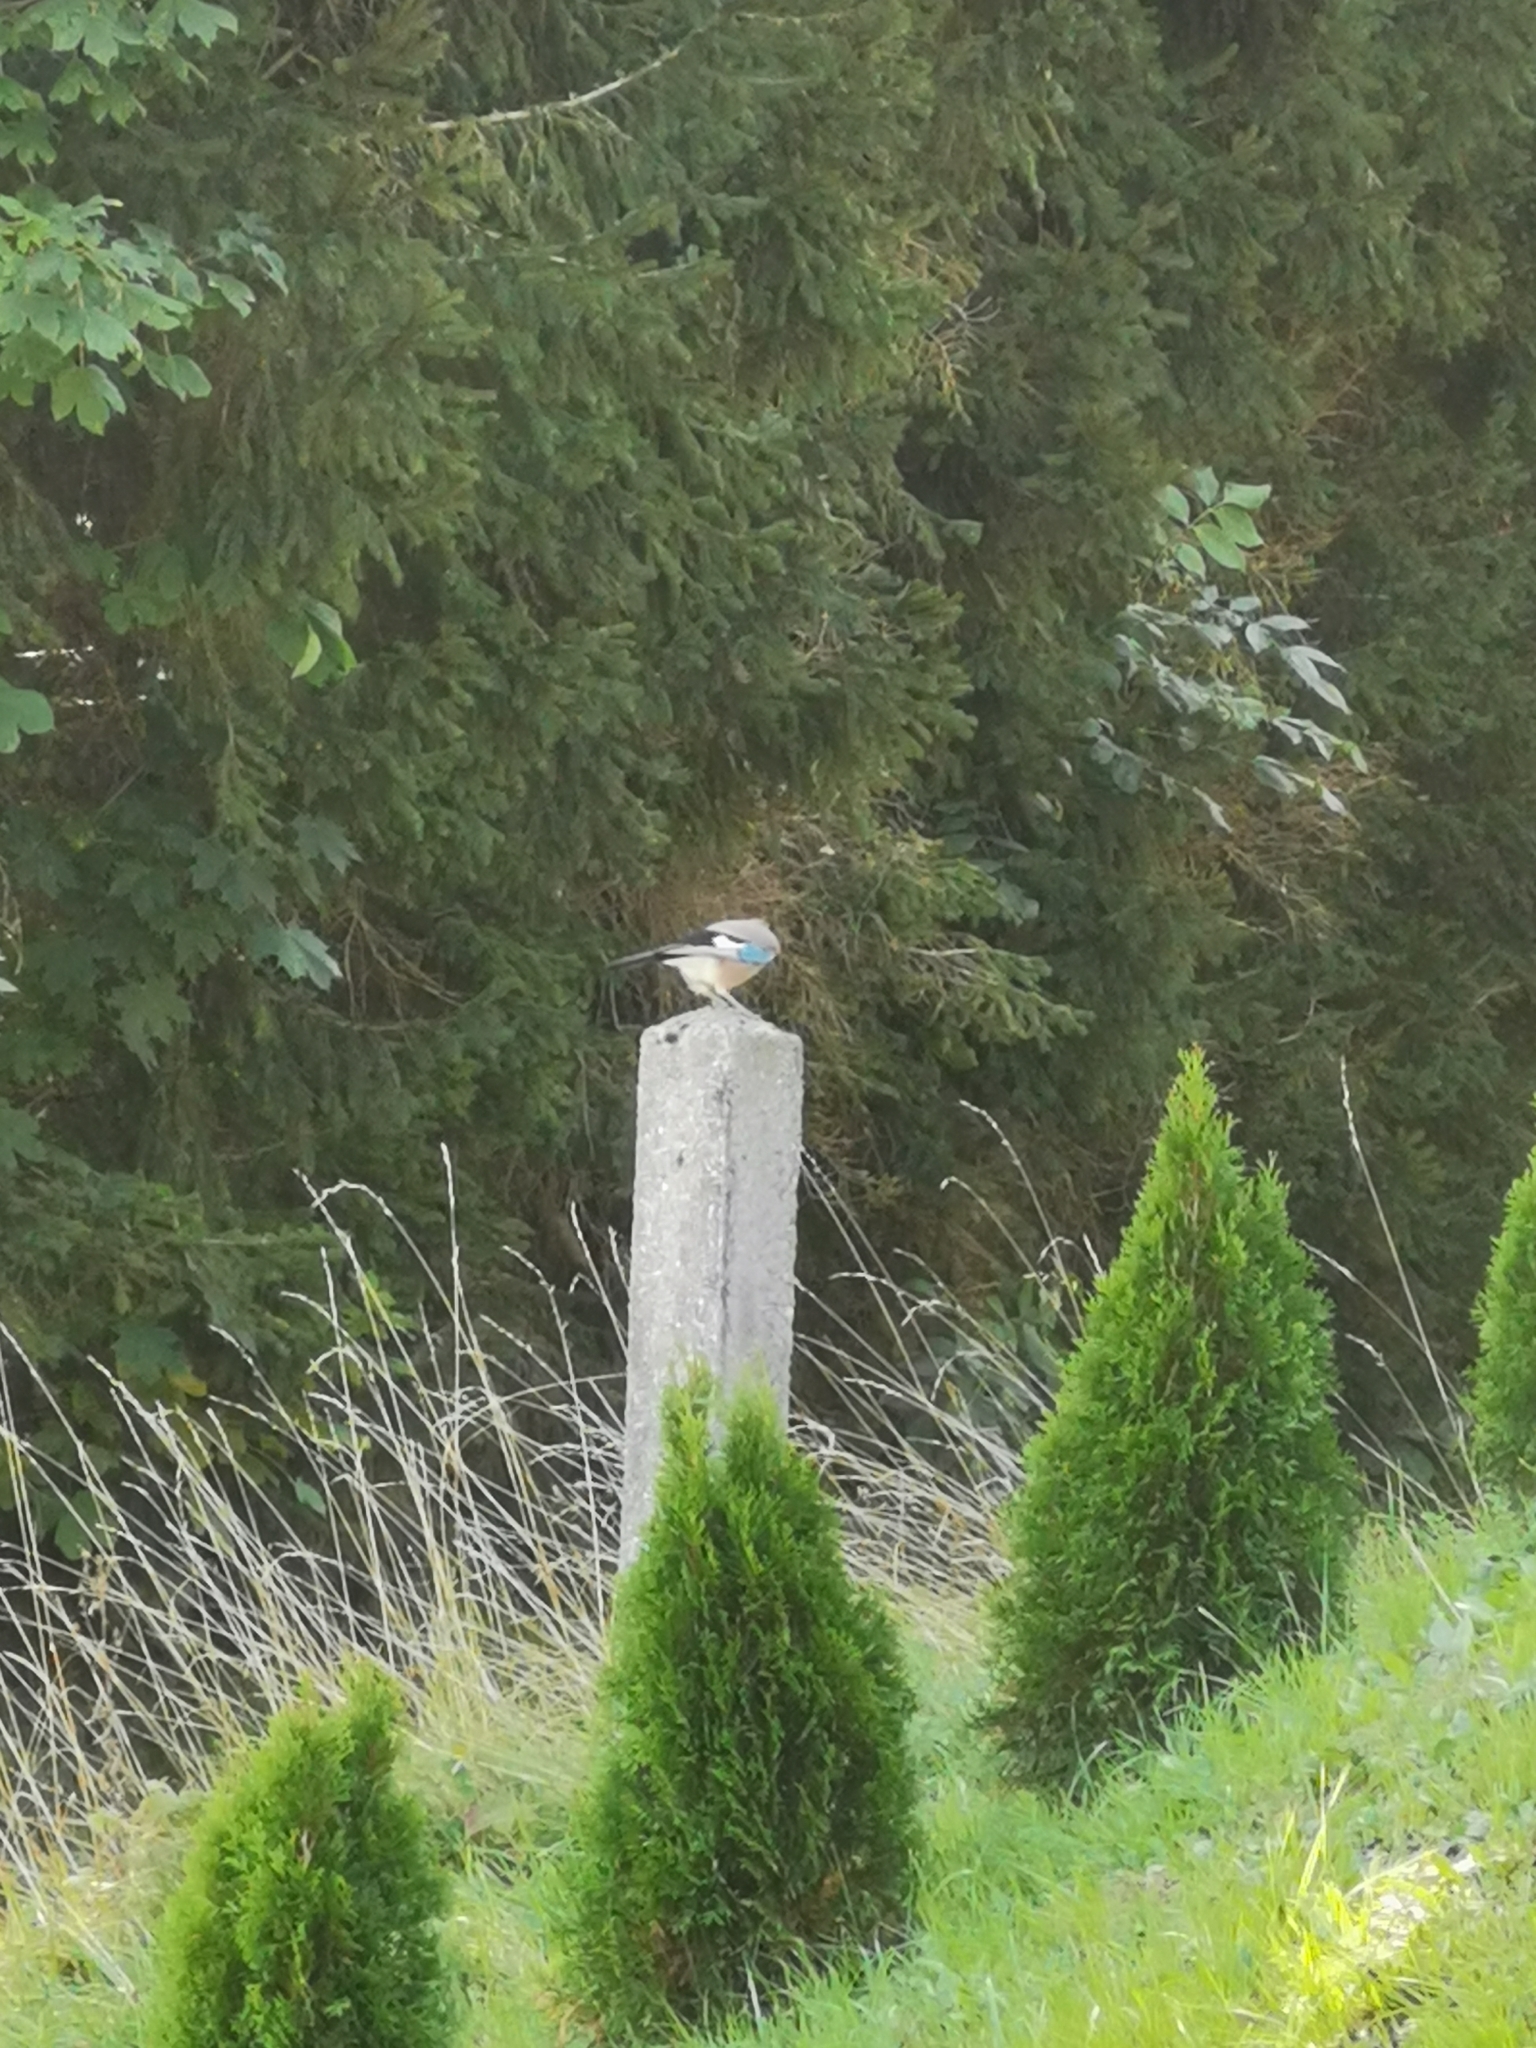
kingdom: Animalia
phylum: Chordata
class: Aves
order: Passeriformes
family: Corvidae
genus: Garrulus
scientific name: Garrulus glandarius
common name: Eurasian jay
